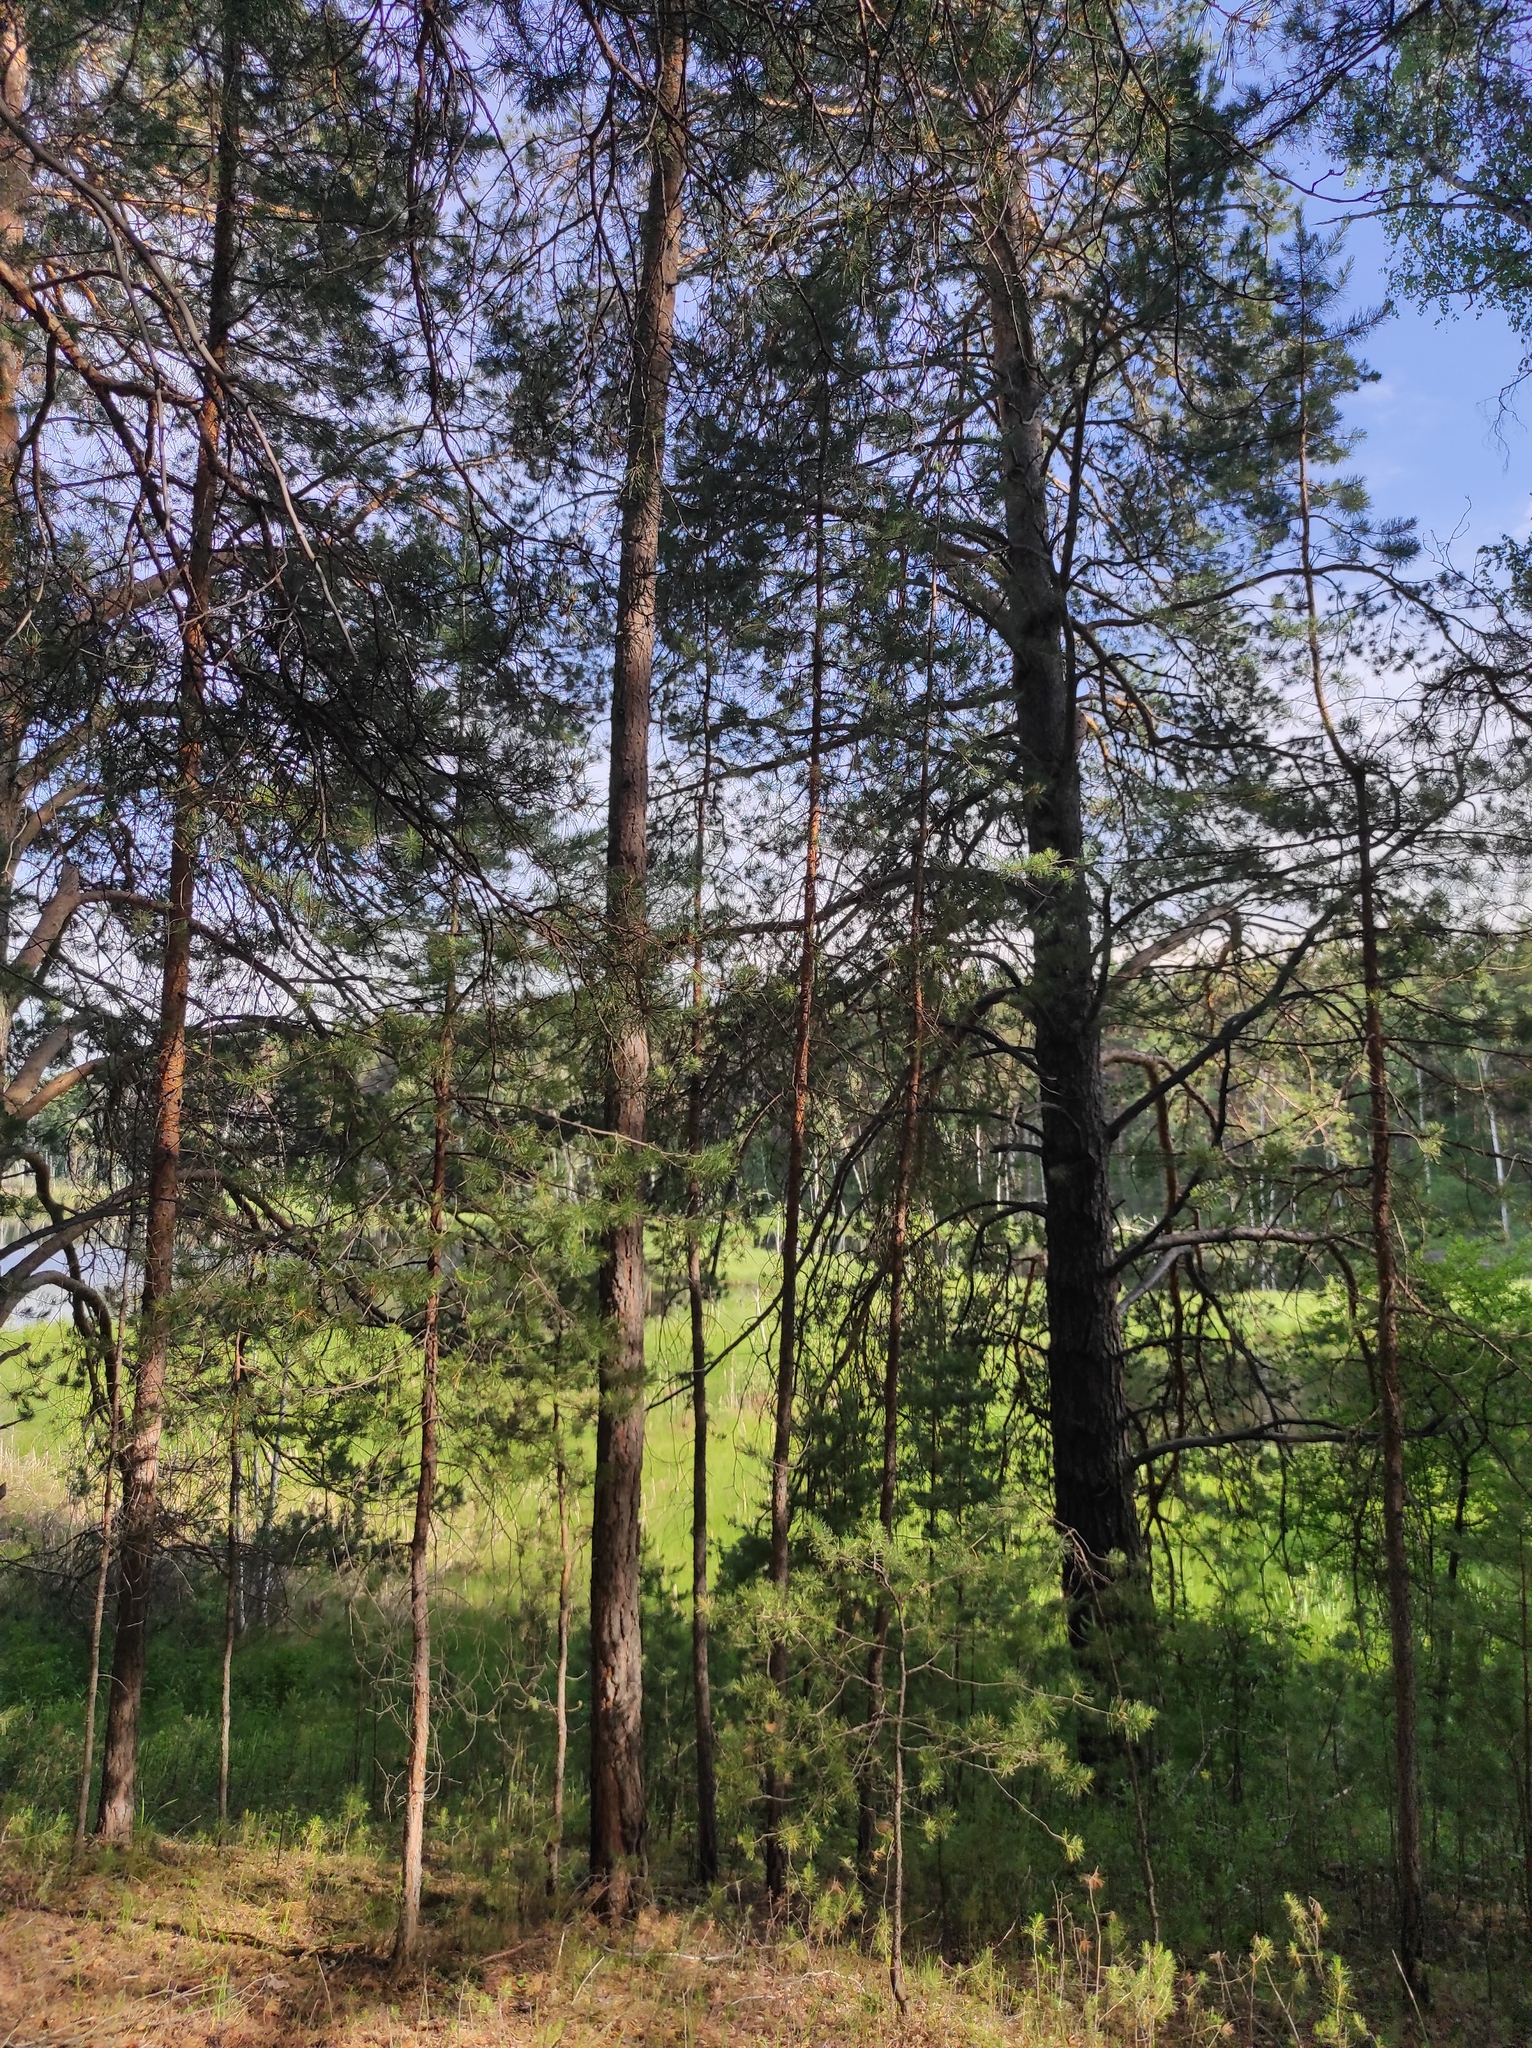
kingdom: Plantae
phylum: Tracheophyta
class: Pinopsida
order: Pinales
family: Pinaceae
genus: Pinus
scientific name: Pinus sylvestris
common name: Scots pine
